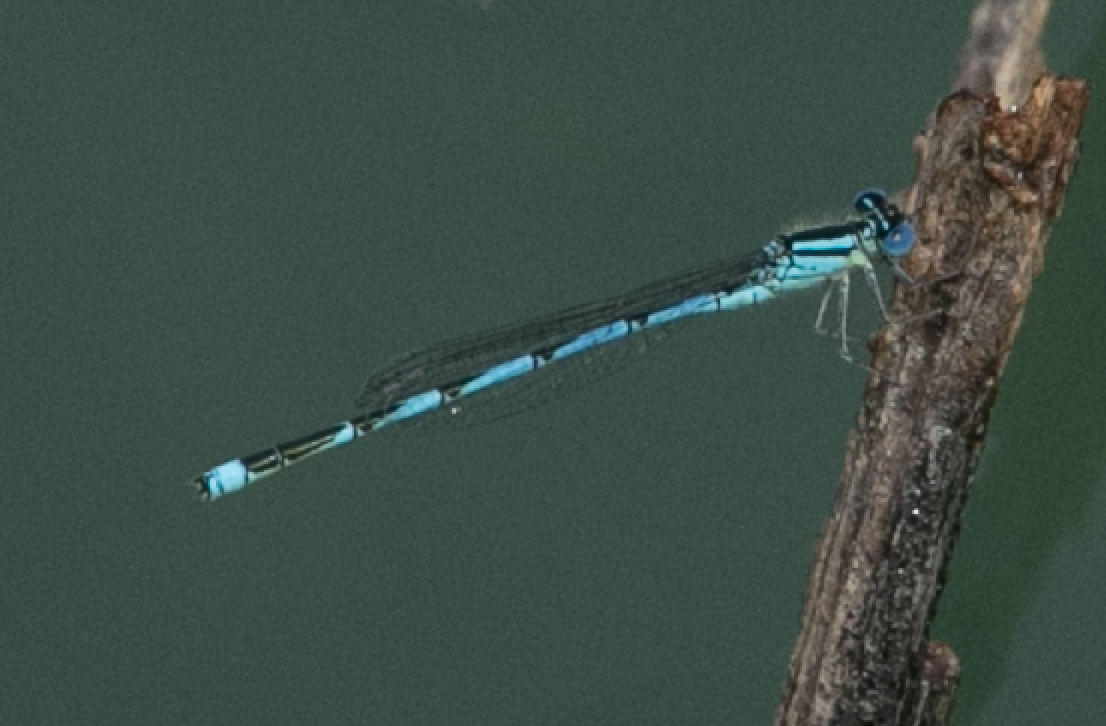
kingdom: Animalia
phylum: Arthropoda
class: Insecta
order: Odonata
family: Coenagrionidae
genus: Erythromma
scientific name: Erythromma lindenii
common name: Blue-eye
